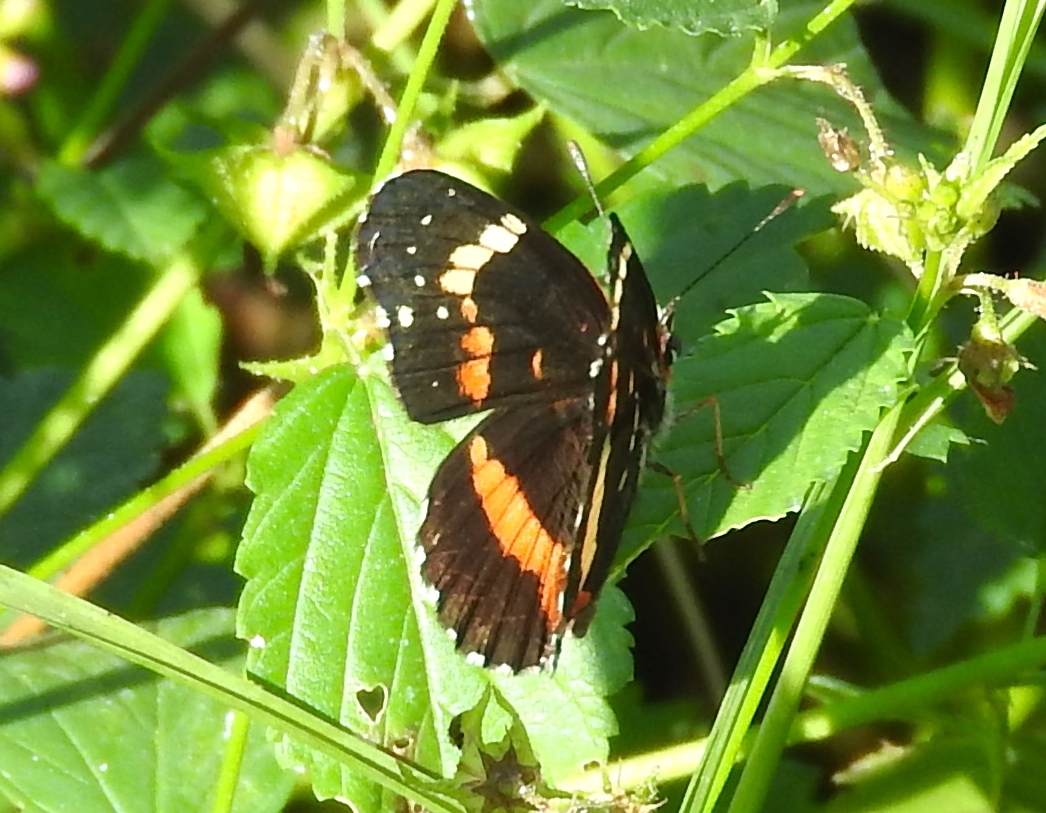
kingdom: Animalia
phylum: Arthropoda
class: Insecta
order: Lepidoptera
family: Nymphalidae
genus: Chlosyne
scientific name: Chlosyne lacinia
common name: Bordered patch
